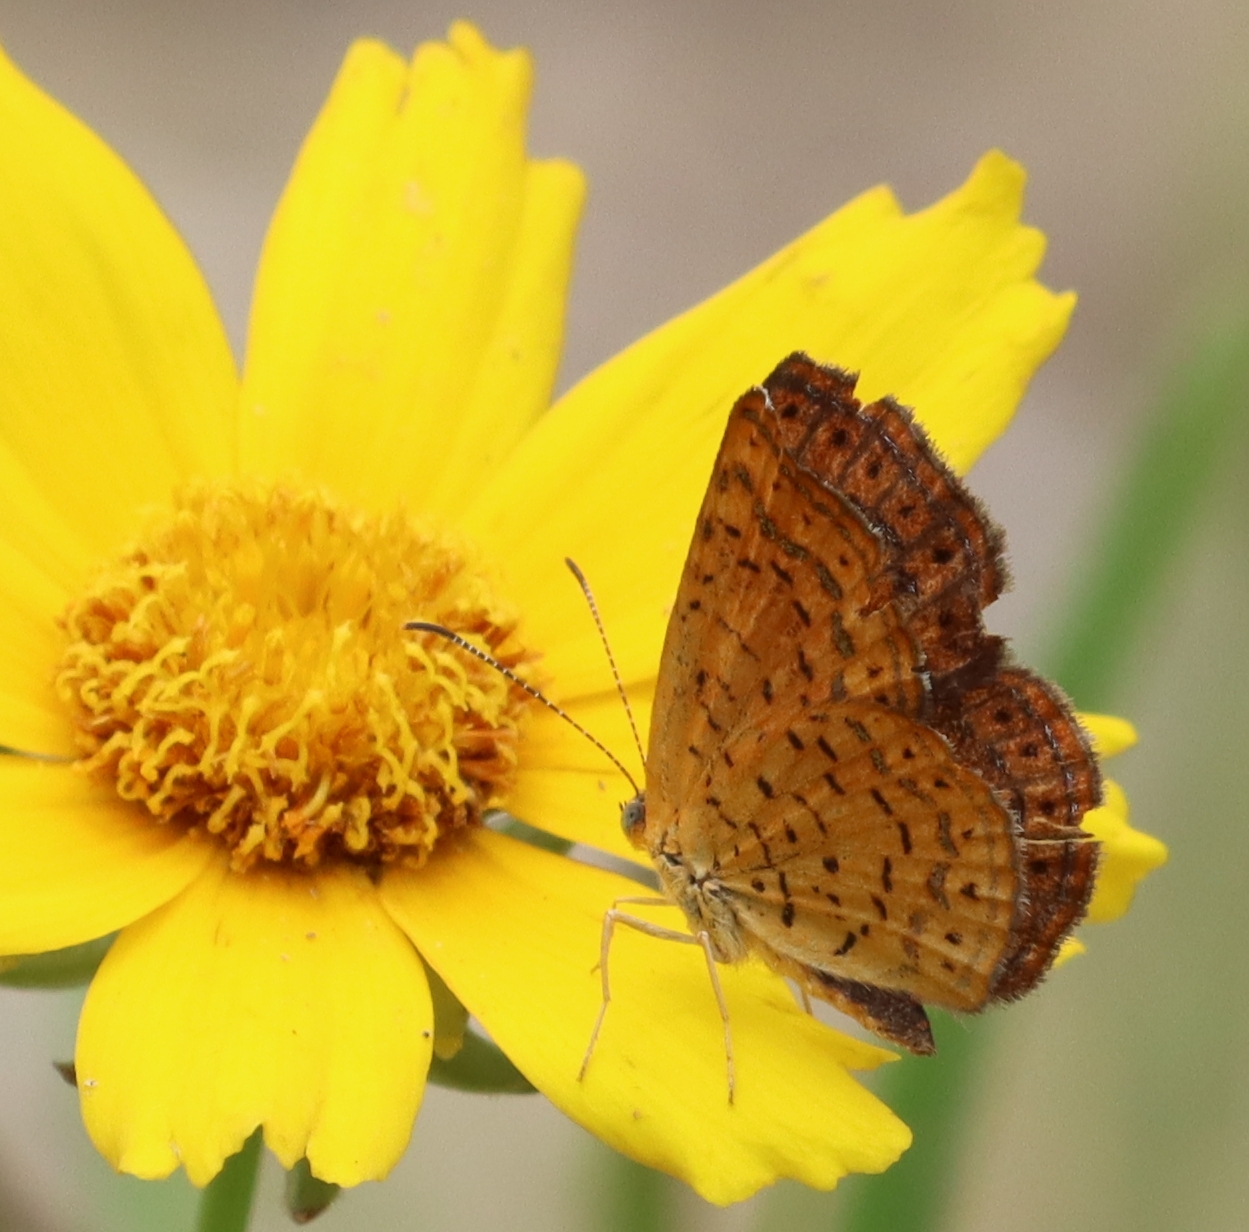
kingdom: Animalia
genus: Calephelis
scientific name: Calephelis borealis
